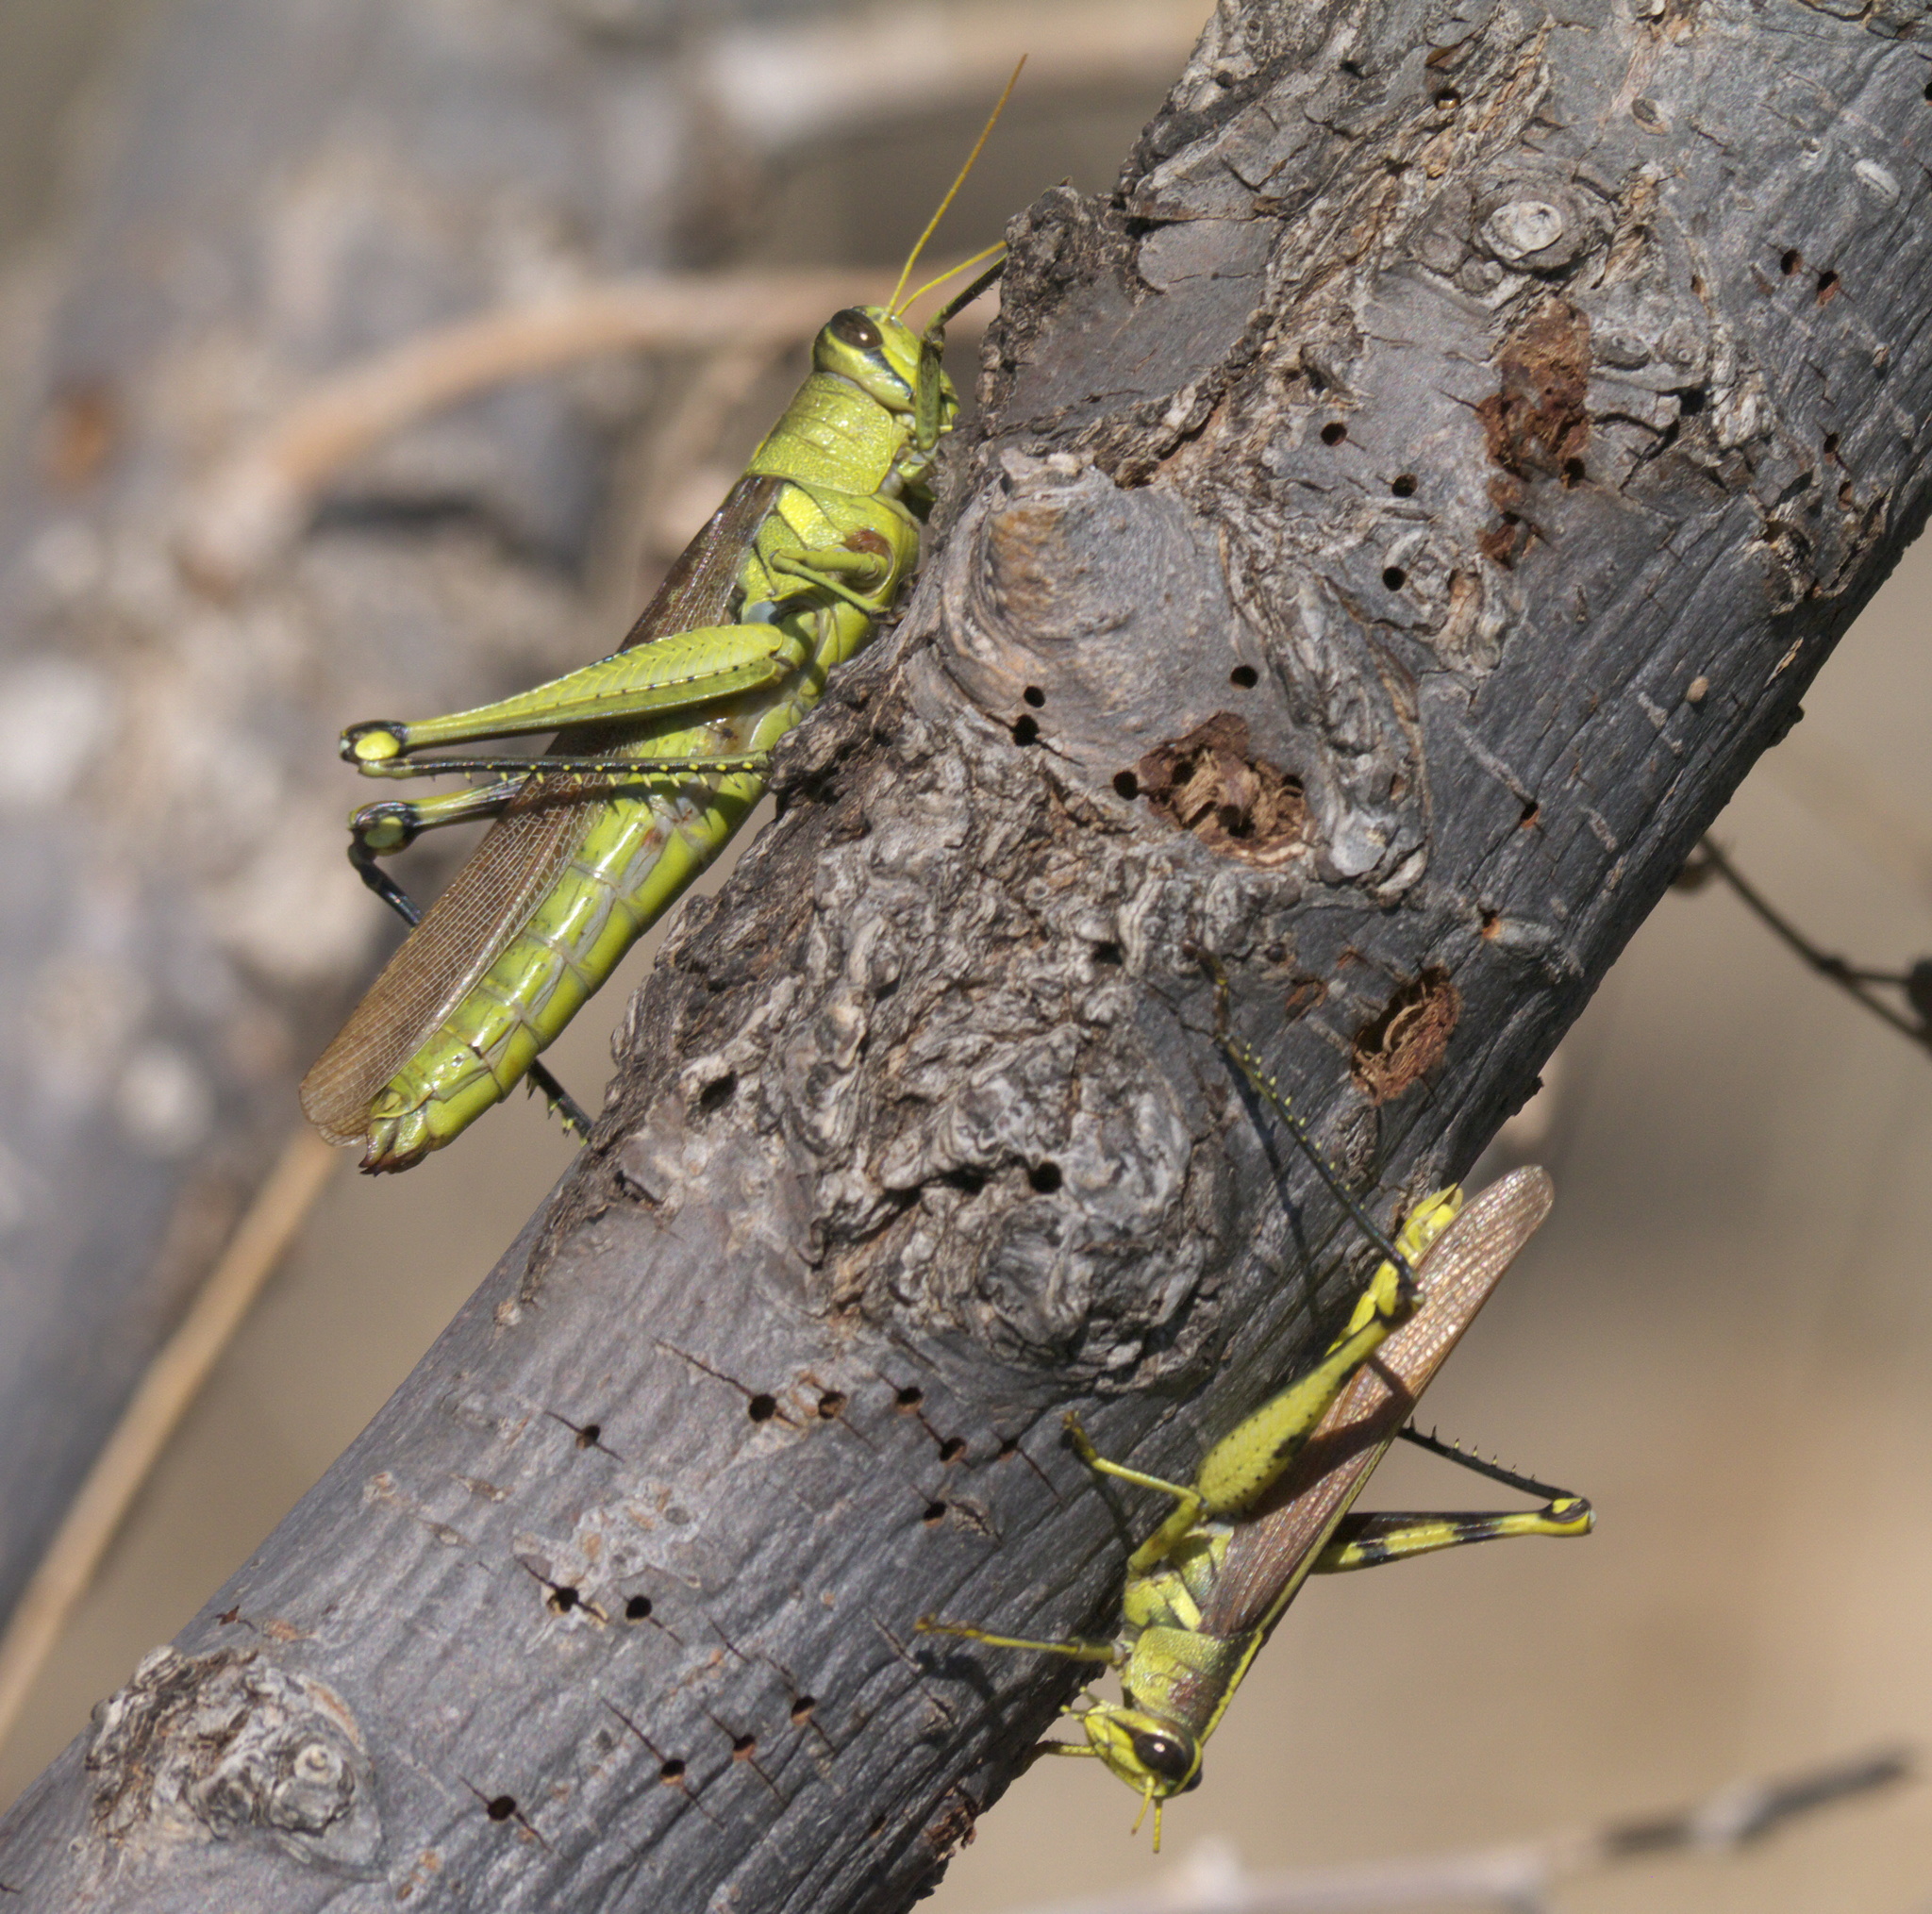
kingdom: Animalia
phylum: Arthropoda
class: Insecta
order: Orthoptera
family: Acrididae
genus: Schistocerca
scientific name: Schistocerca obscura
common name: Obscure bird grasshopper
